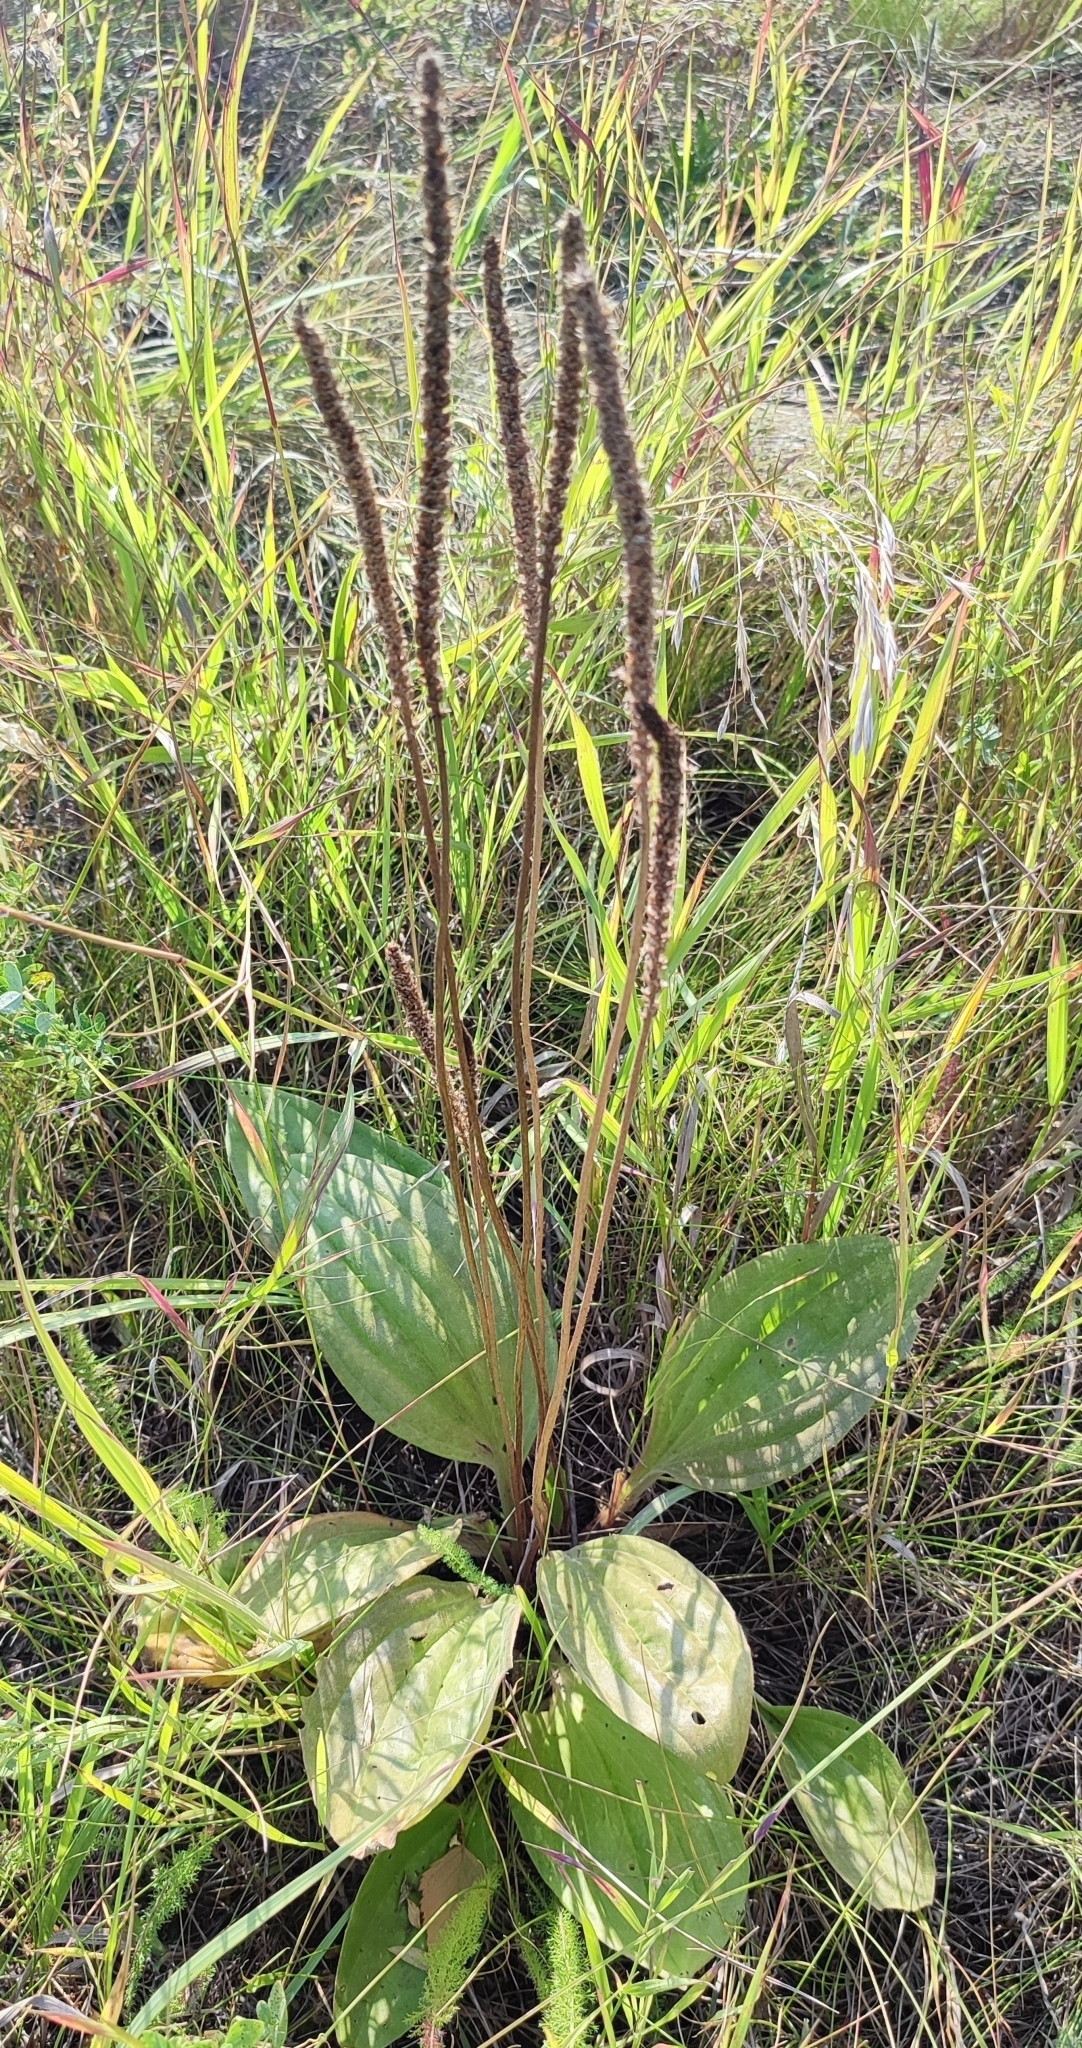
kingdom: Plantae
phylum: Tracheophyta
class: Magnoliopsida
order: Lamiales
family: Plantaginaceae
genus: Plantago
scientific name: Plantago cornuti
